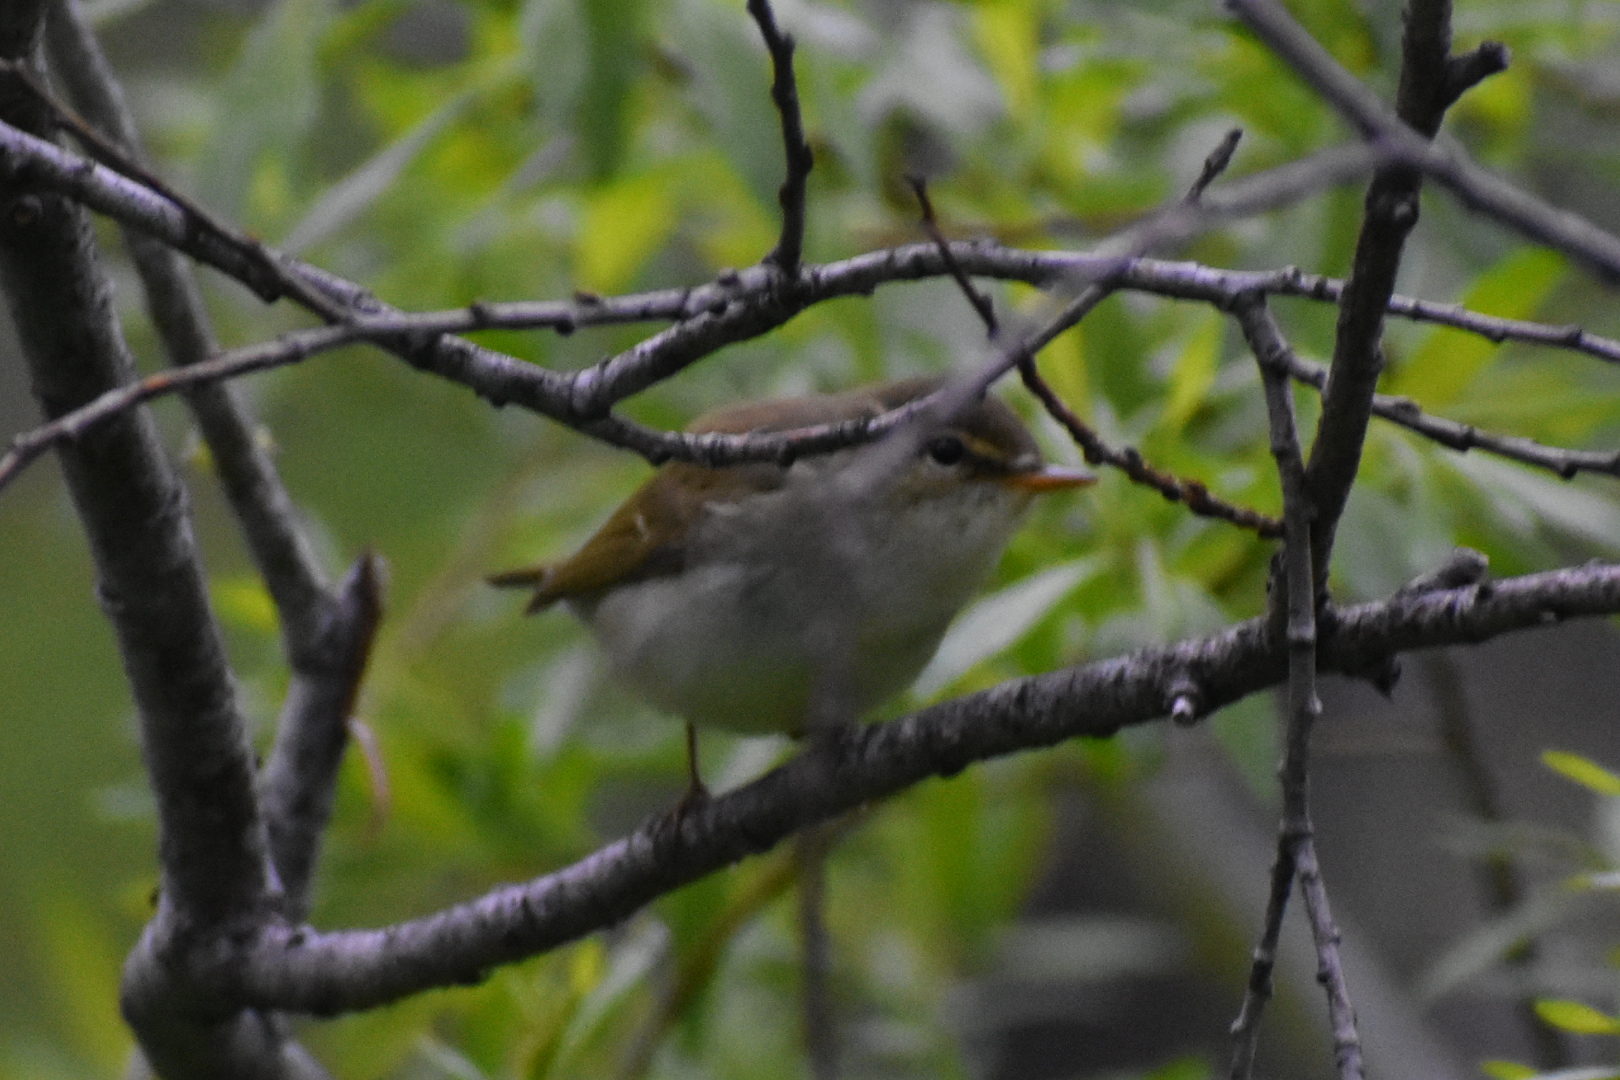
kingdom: Animalia
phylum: Chordata
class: Aves
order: Passeriformes
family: Phylloscopidae
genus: Phylloscopus
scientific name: Phylloscopus examinandus
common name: Kamchatka leaf warbler
